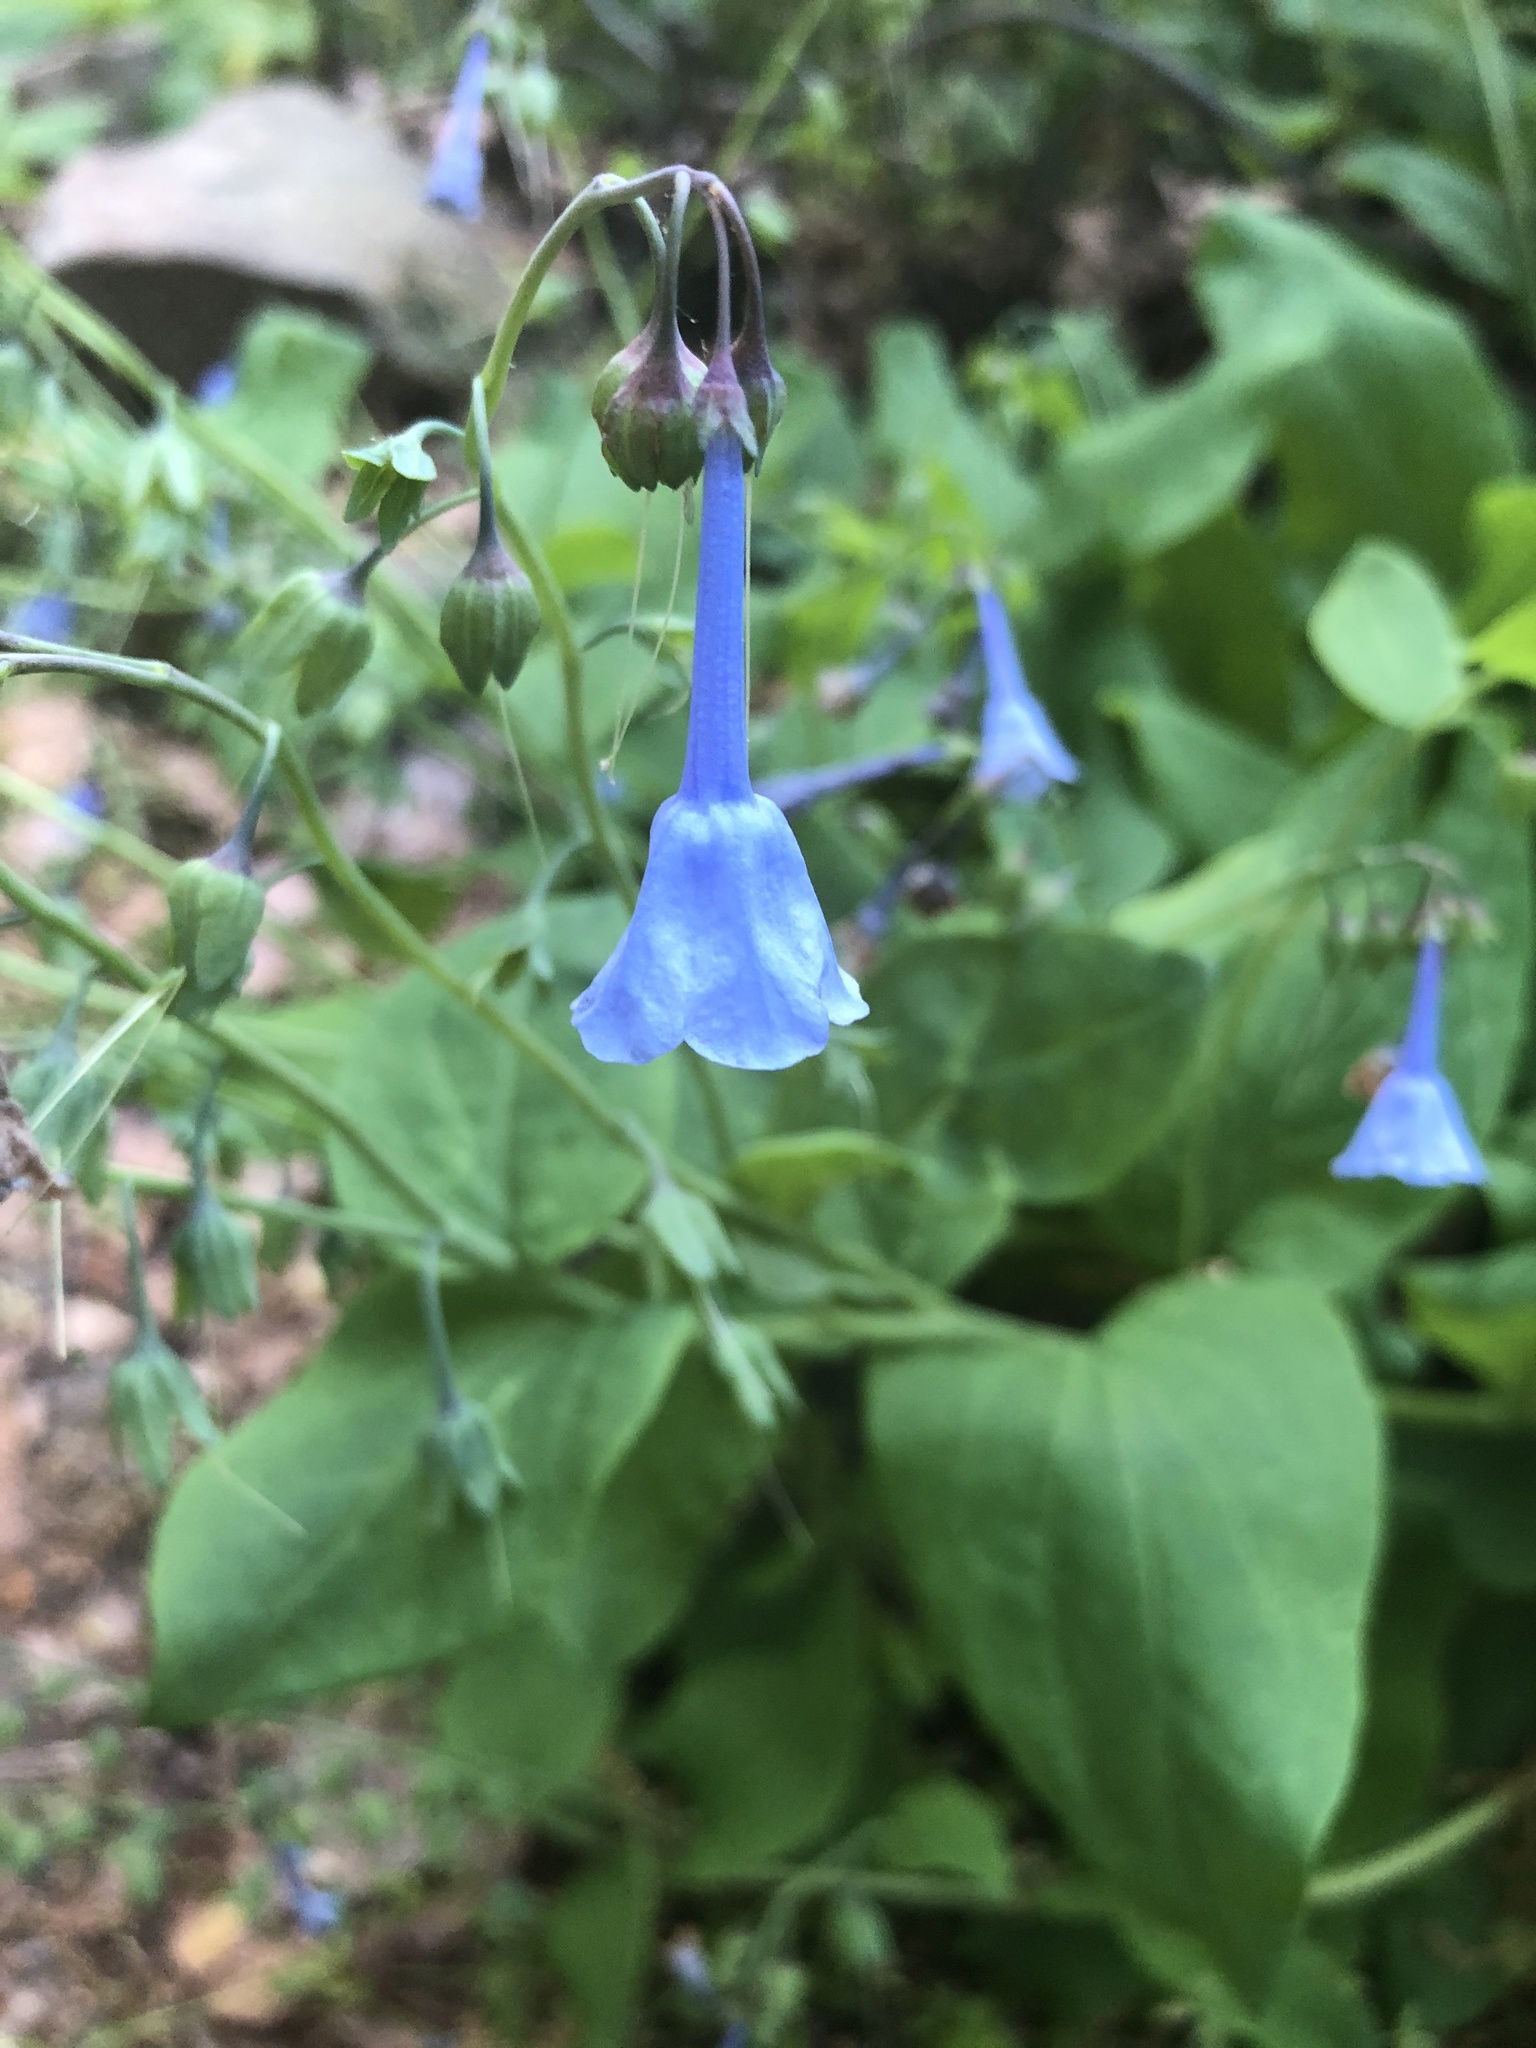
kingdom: Plantae
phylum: Tracheophyta
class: Magnoliopsida
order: Boraginales
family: Boraginaceae
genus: Mertensia
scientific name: Mertensia virginica
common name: Virginia bluebells
